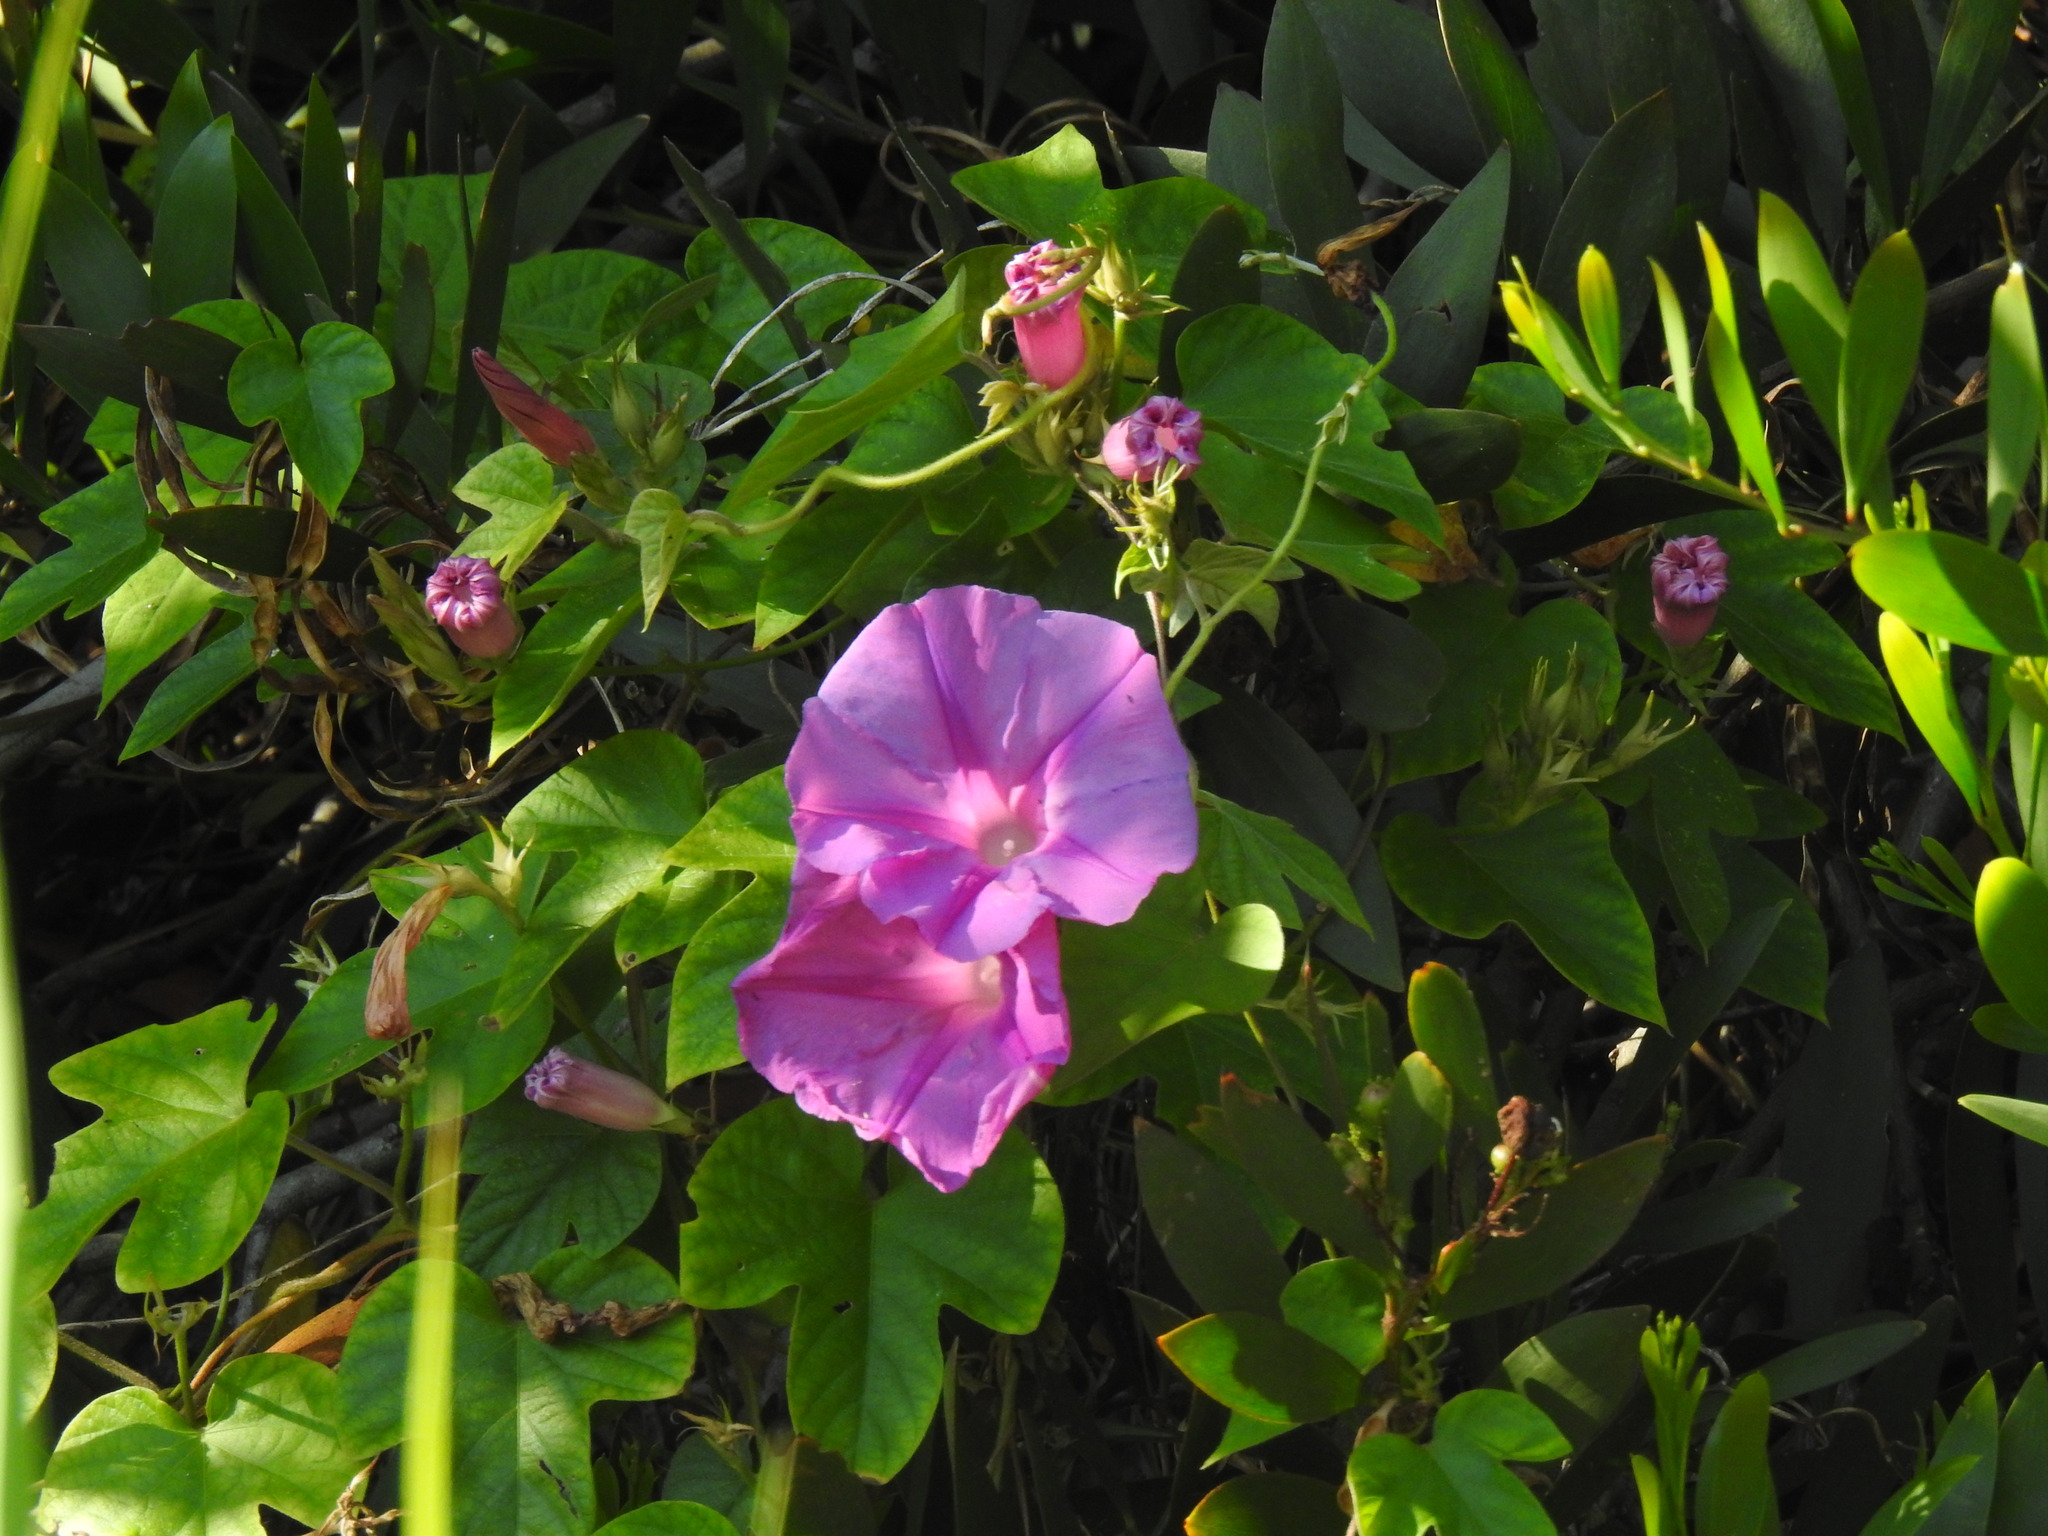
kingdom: Plantae
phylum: Tracheophyta
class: Magnoliopsida
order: Solanales
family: Convolvulaceae
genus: Ipomoea
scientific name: Ipomoea indica
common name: Blue dawnflower
